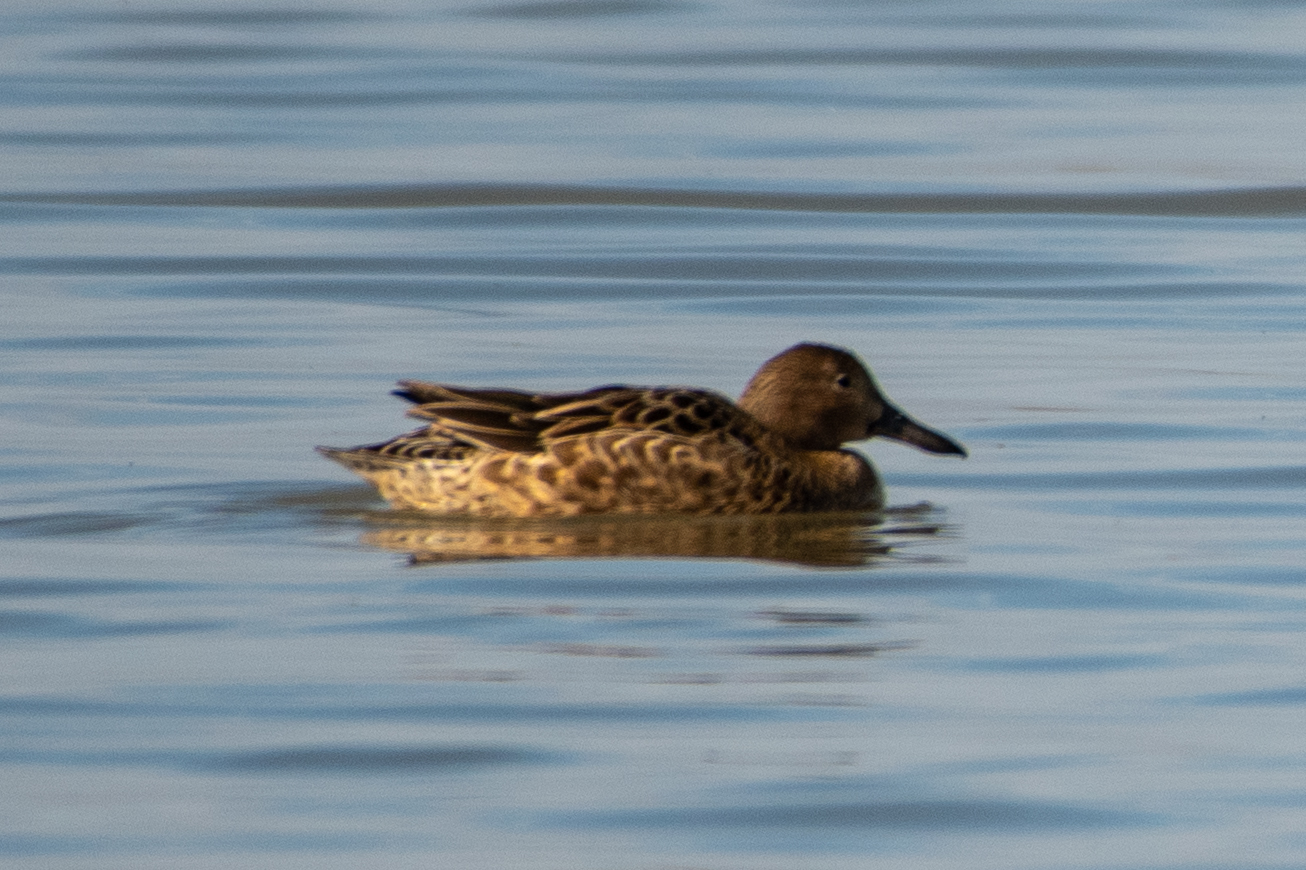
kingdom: Animalia
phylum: Chordata
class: Aves
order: Anseriformes
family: Anatidae
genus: Spatula
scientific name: Spatula cyanoptera
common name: Cinnamon teal
